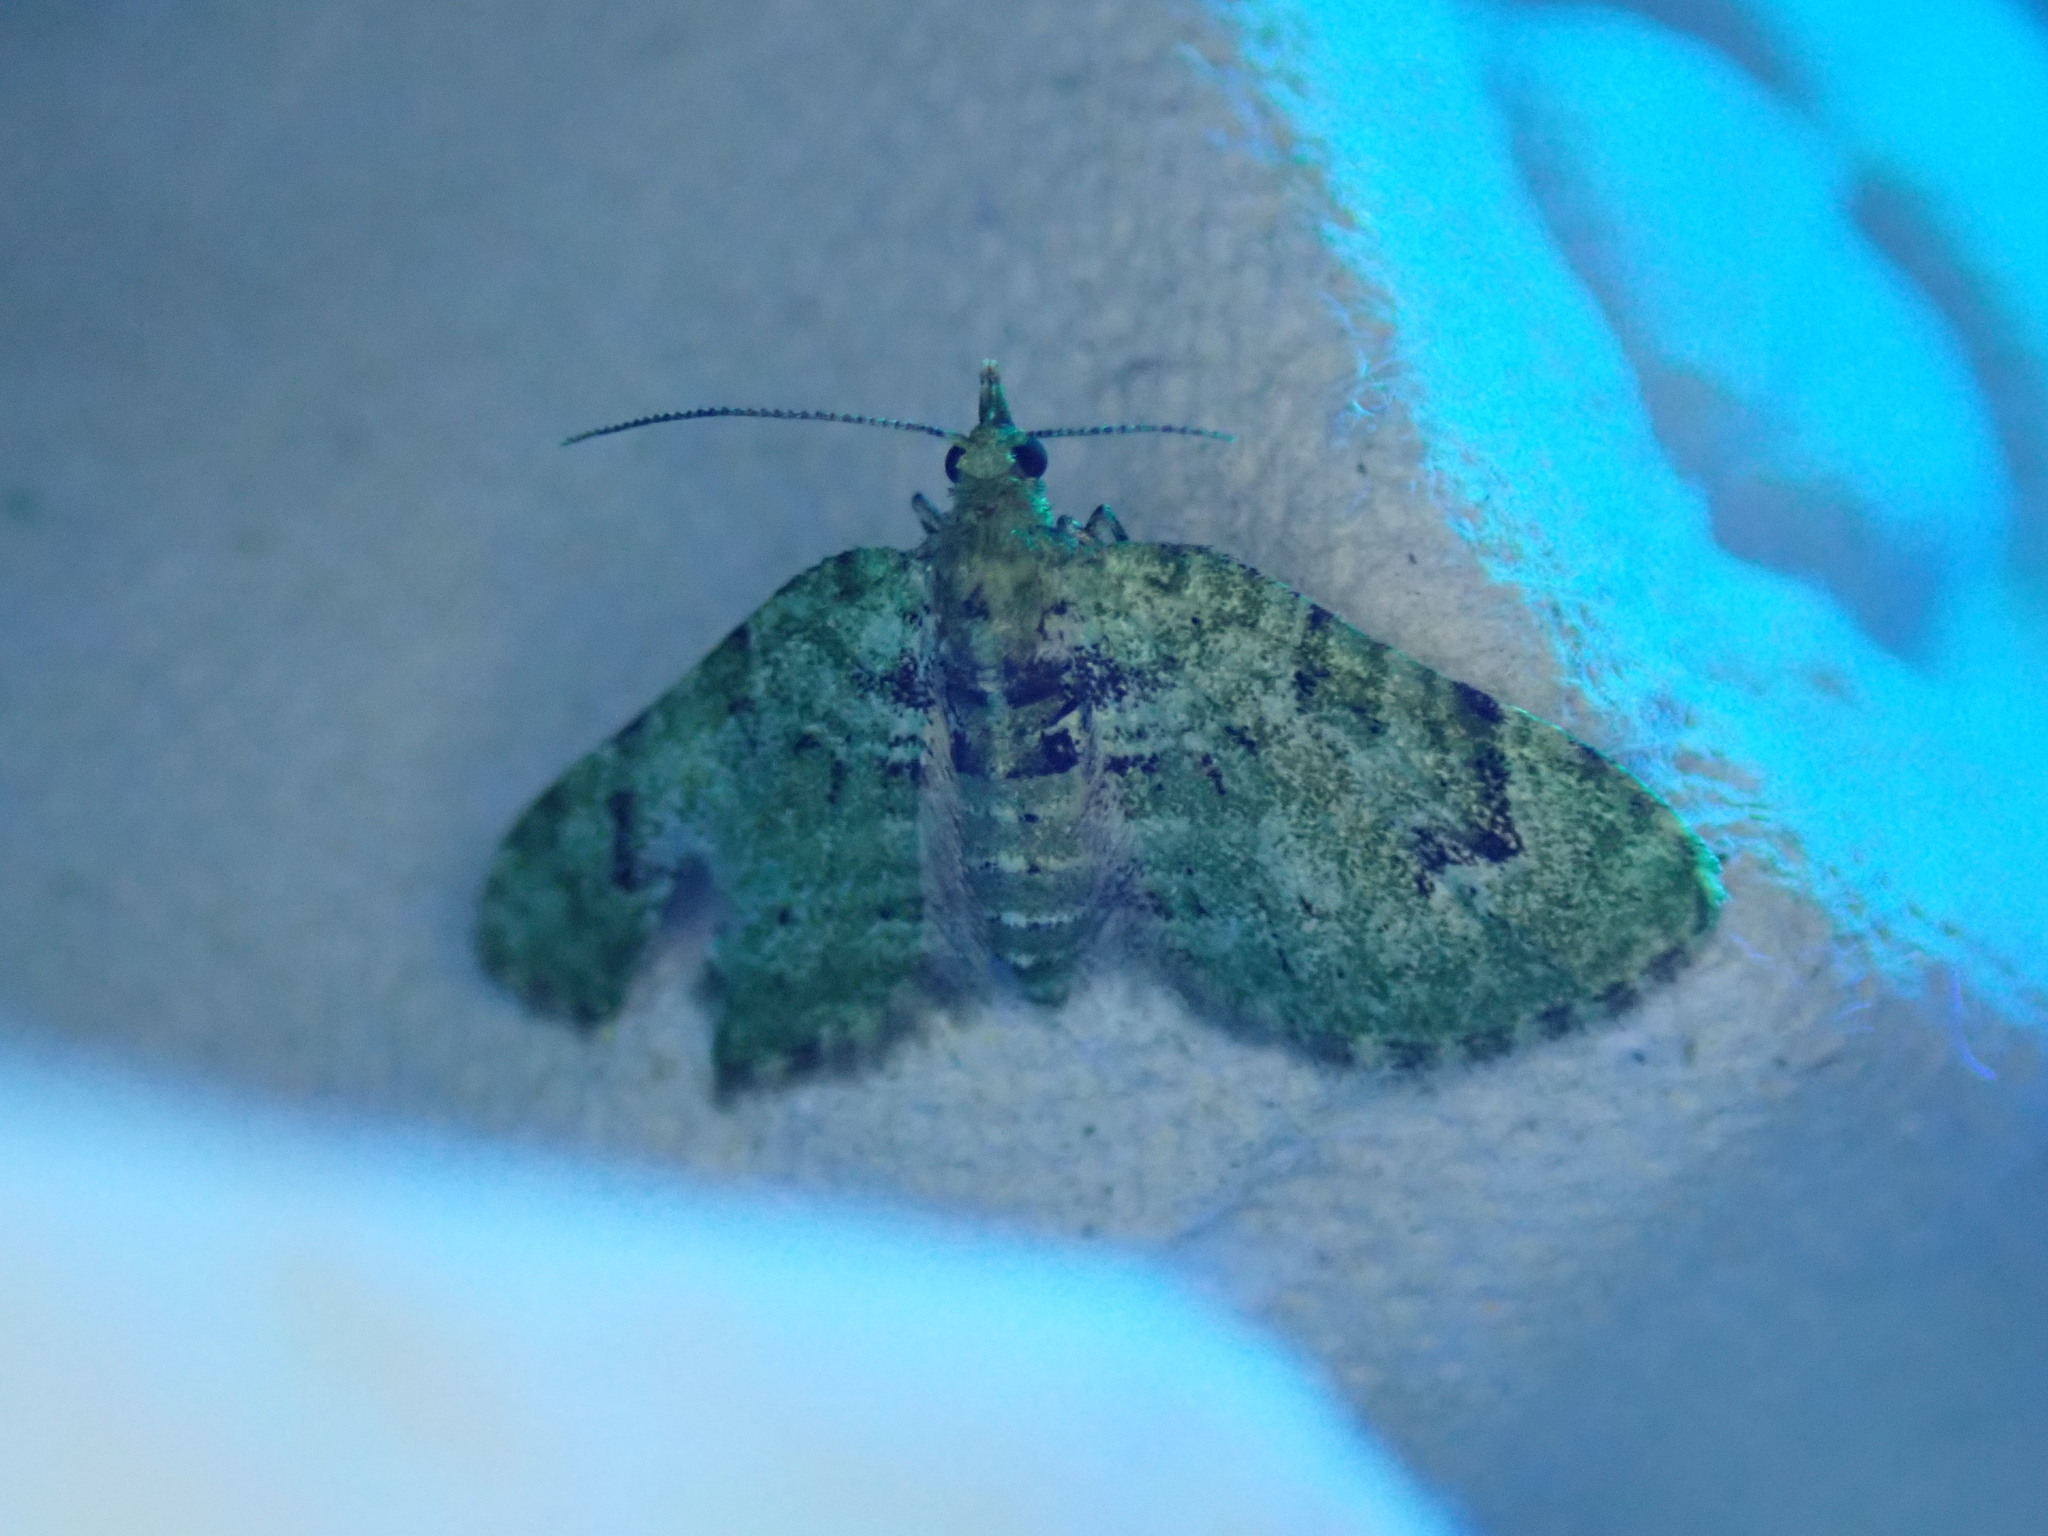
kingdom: Animalia
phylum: Arthropoda
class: Insecta
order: Lepidoptera
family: Geometridae
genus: Chloroclystis
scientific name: Chloroclystis v-ata
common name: V-pug
